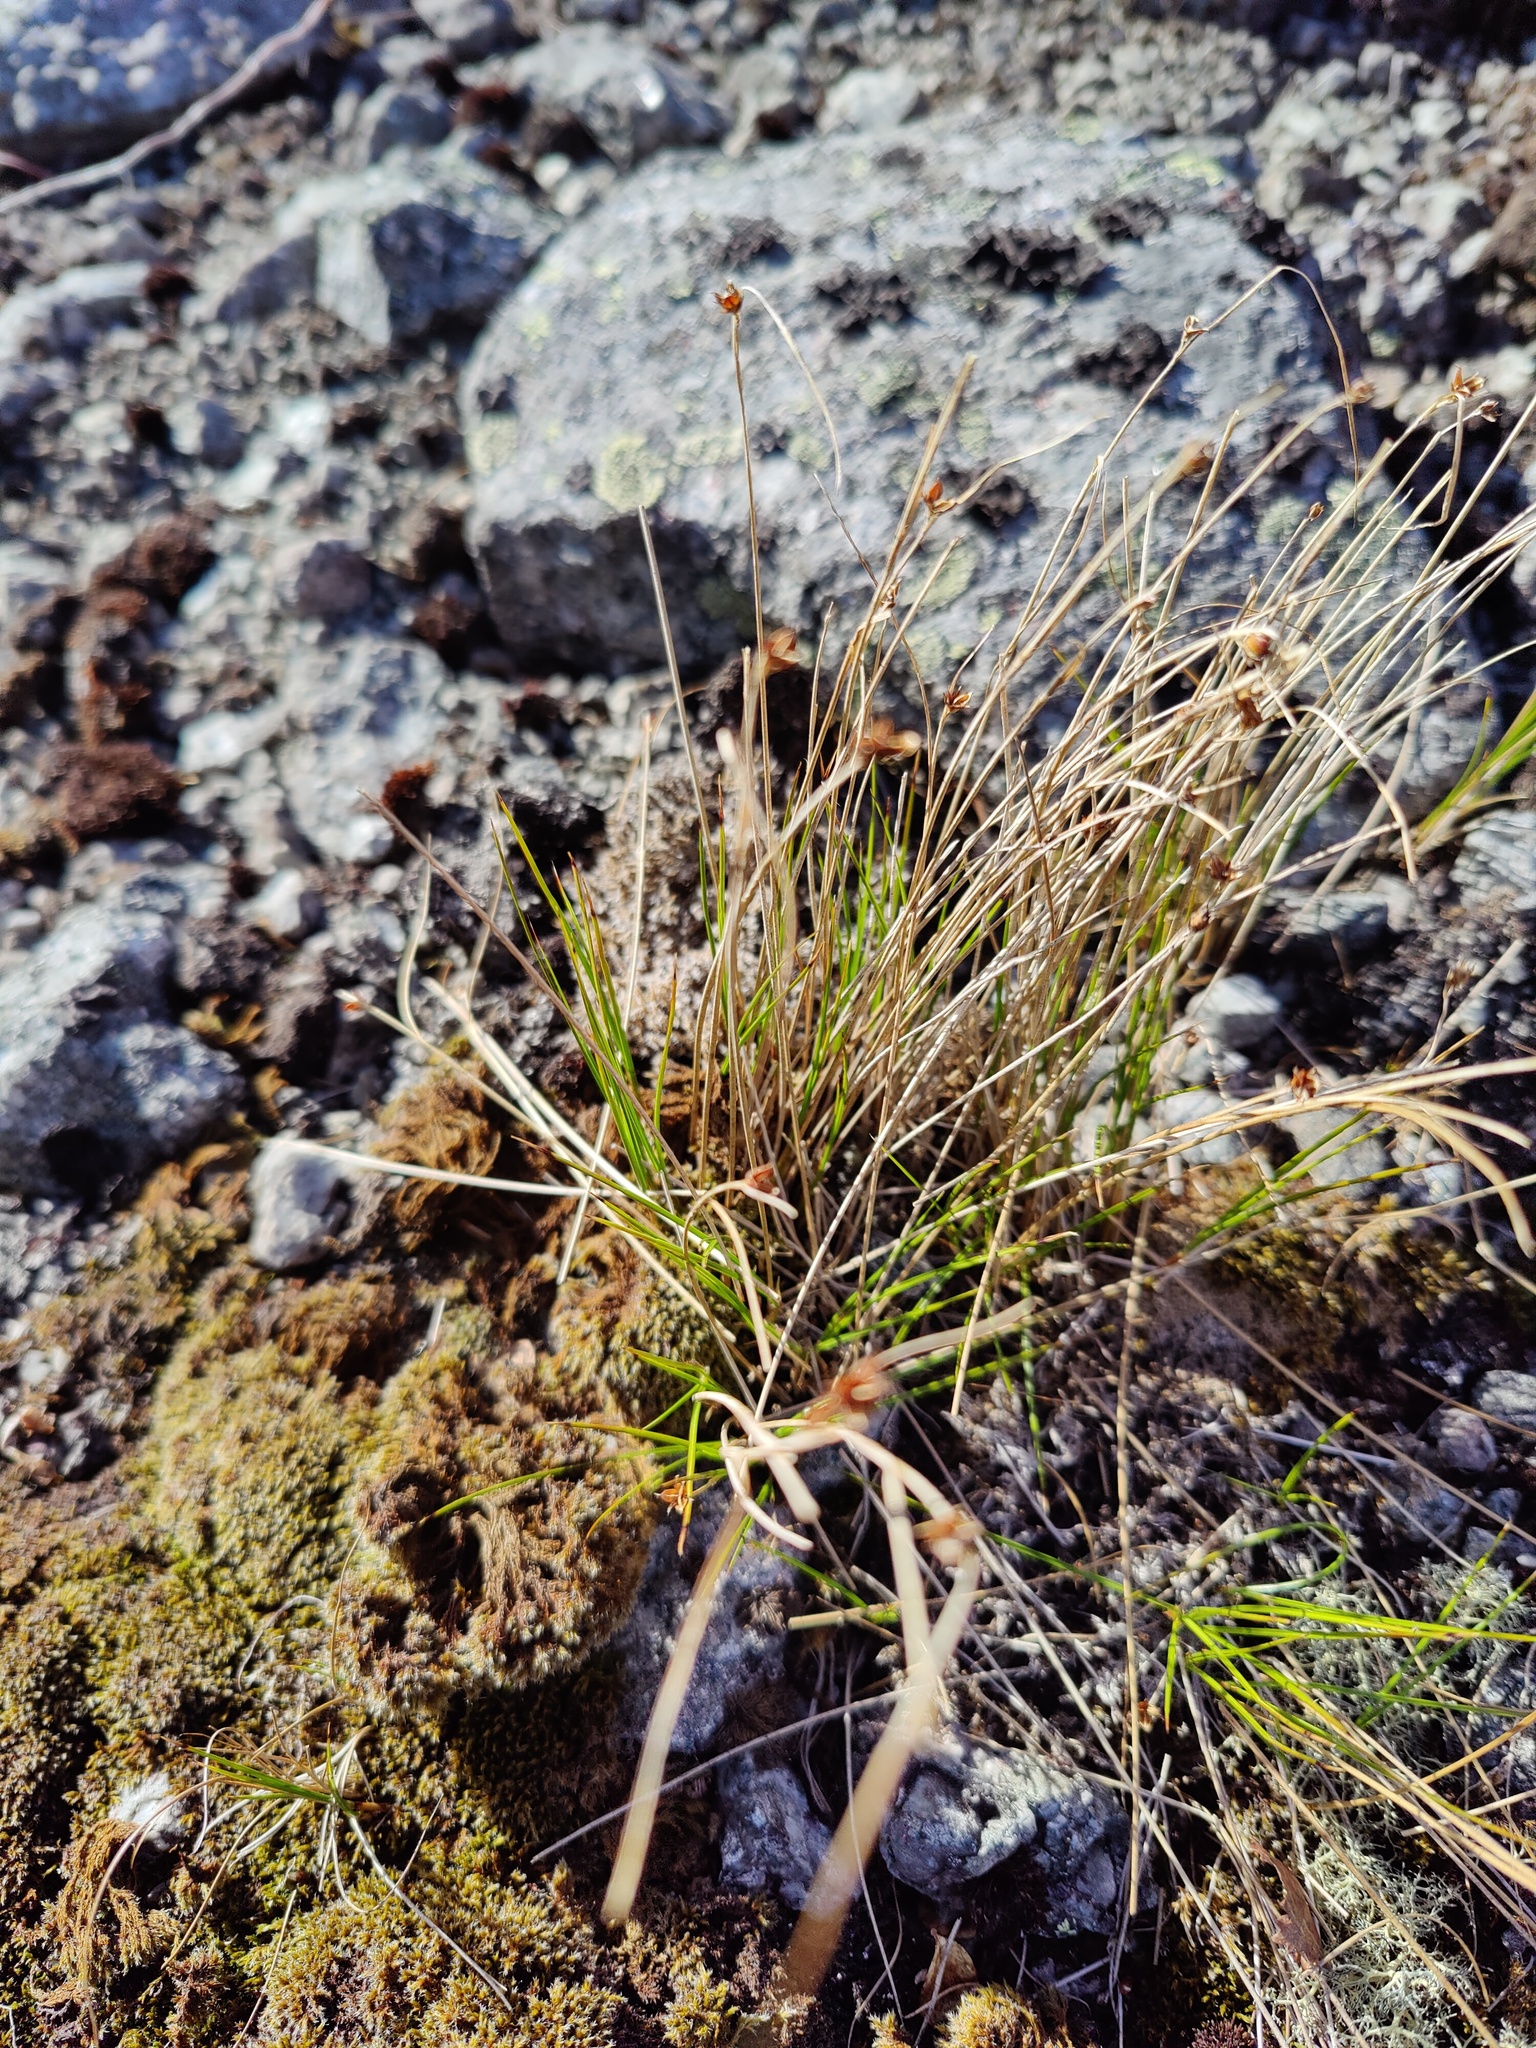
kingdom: Plantae
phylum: Tracheophyta
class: Liliopsida
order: Poales
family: Juncaceae
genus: Oreojuncus
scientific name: Oreojuncus trifidus
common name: Highland rush
